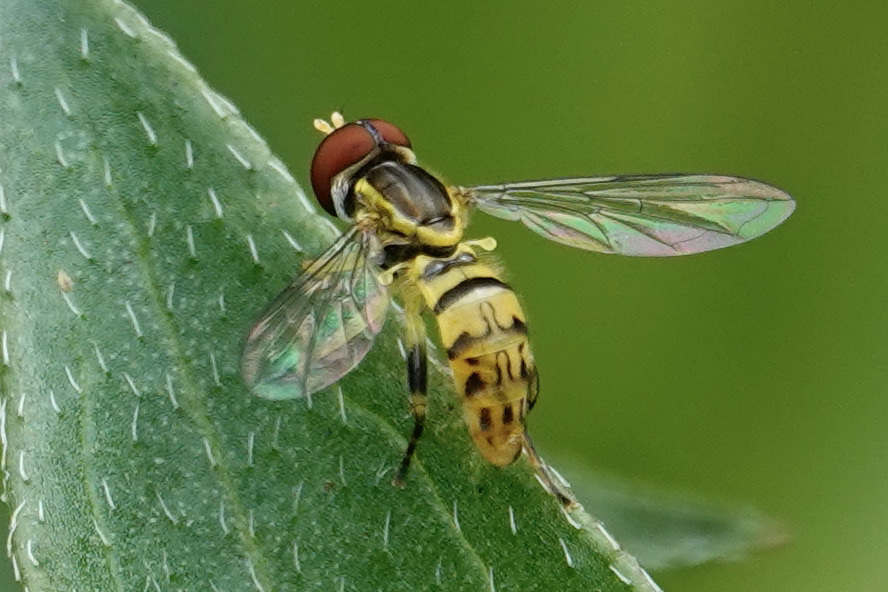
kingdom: Animalia
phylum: Arthropoda
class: Insecta
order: Diptera
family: Syrphidae
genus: Toxomerus
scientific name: Toxomerus geminatus
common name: Eastern calligrapher
